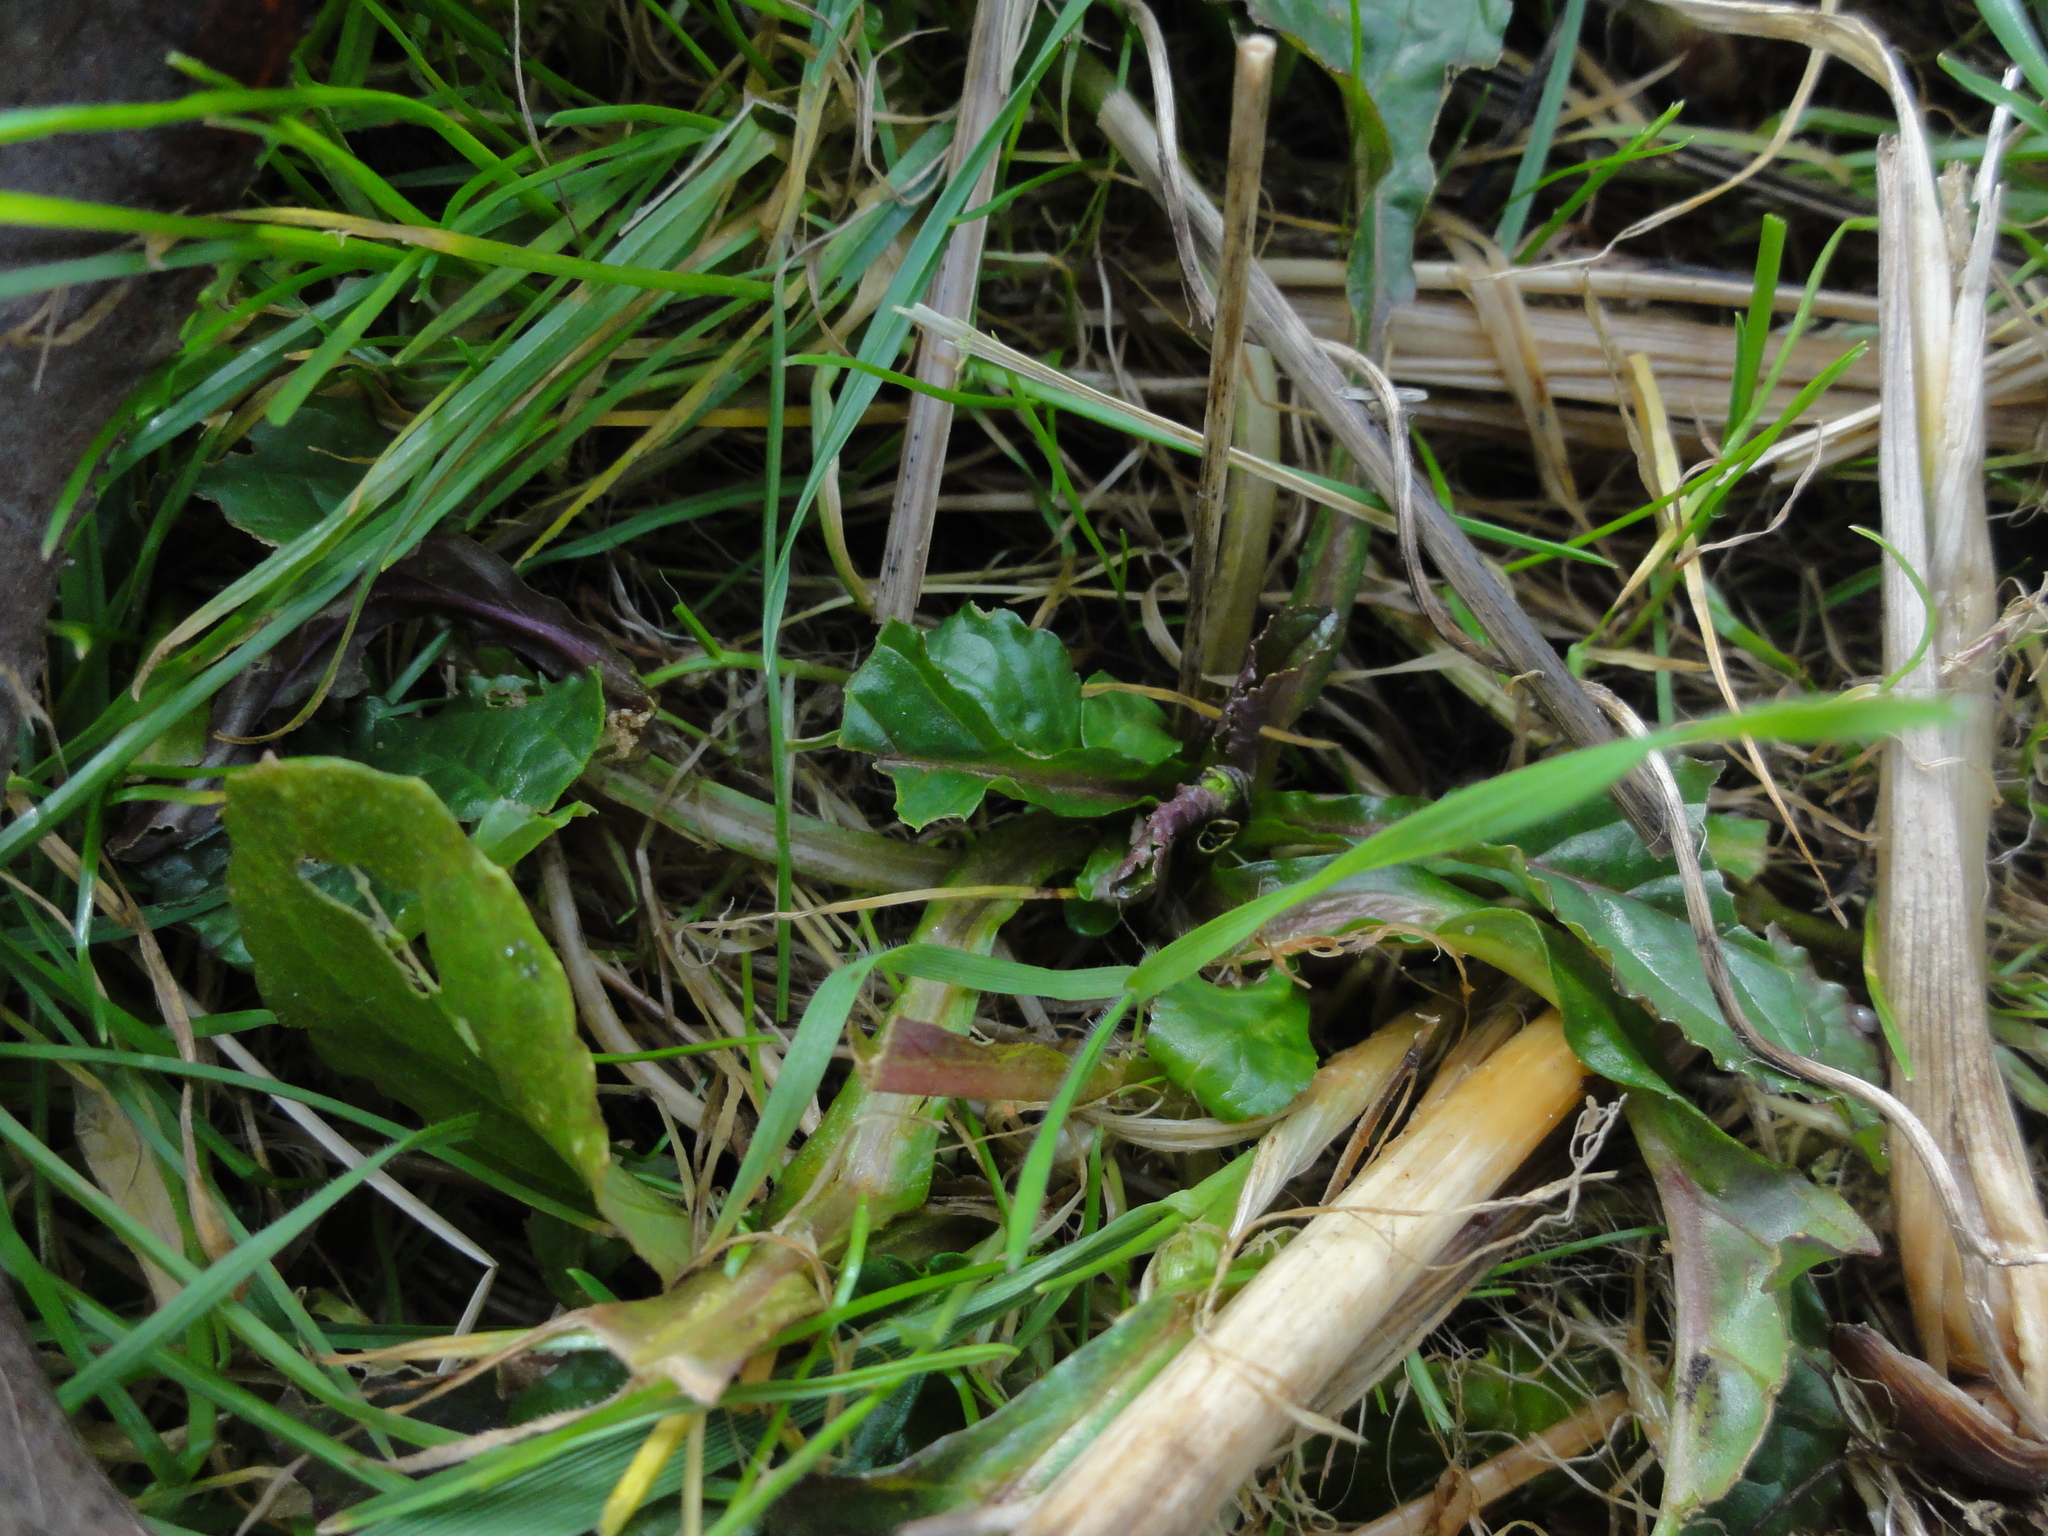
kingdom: Plantae
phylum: Tracheophyta
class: Magnoliopsida
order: Lamiales
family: Lamiaceae
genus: Ajuga
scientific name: Ajuga reptans
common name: Bugle
